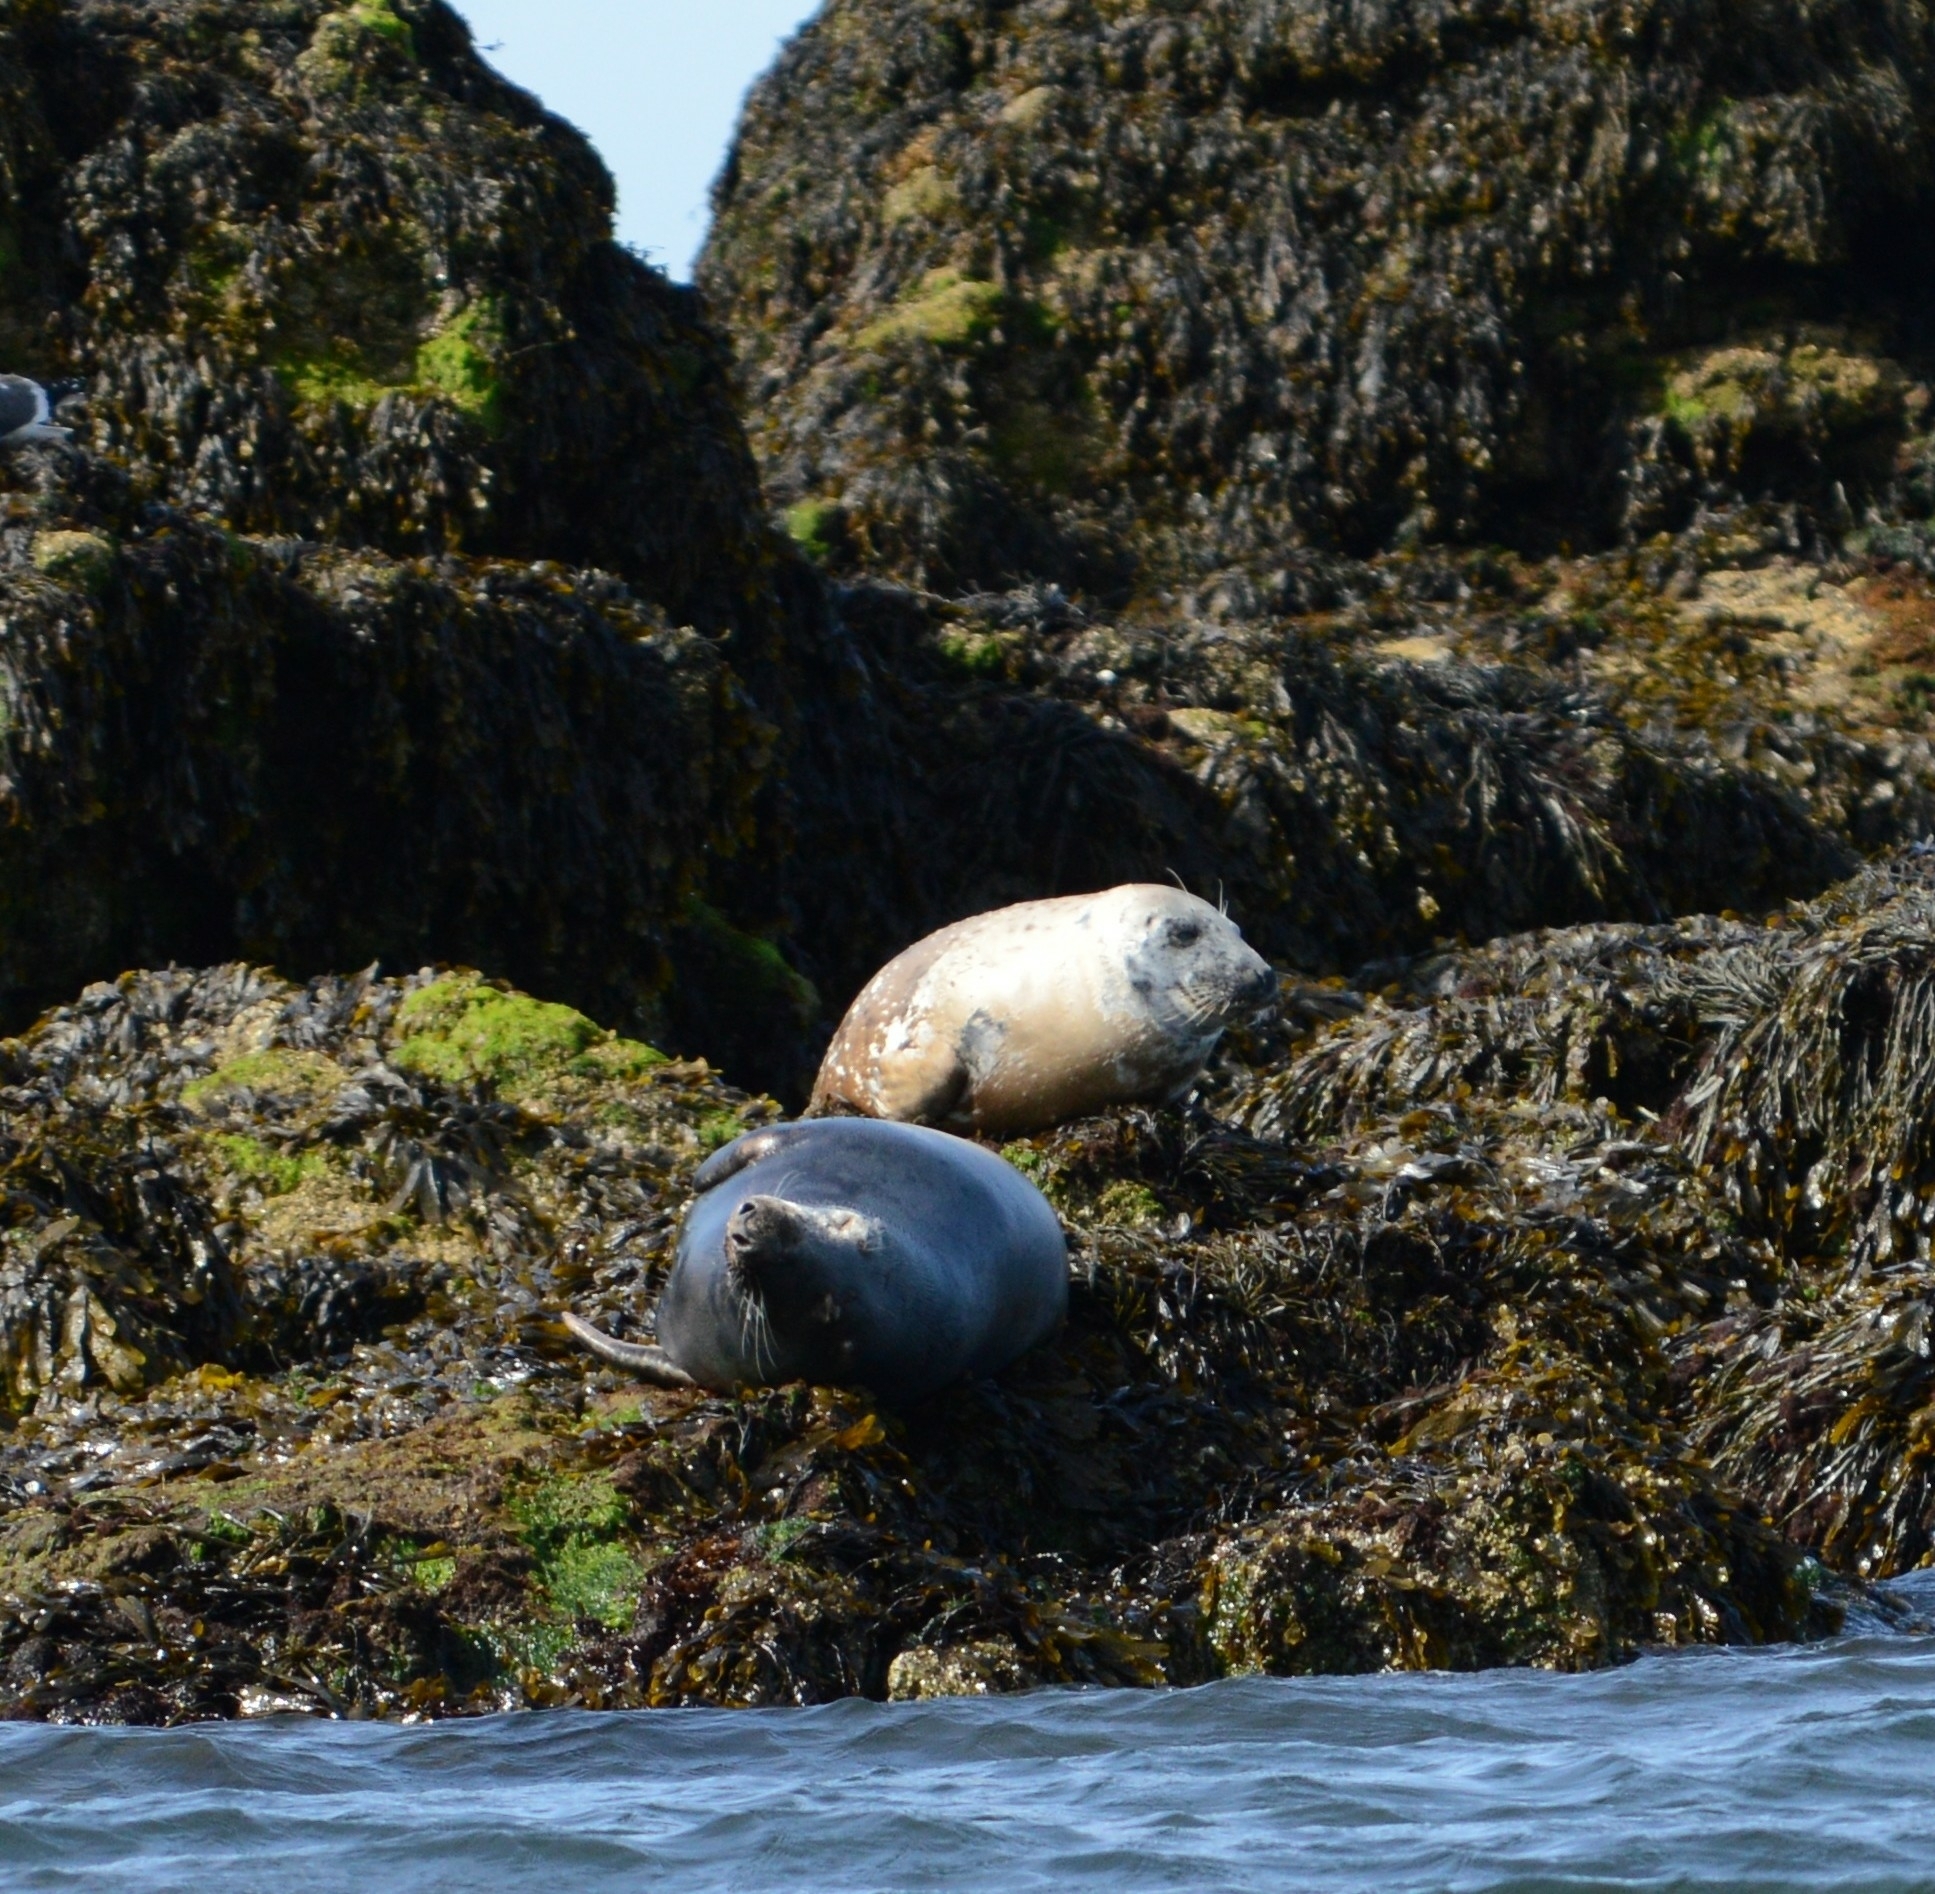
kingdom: Animalia
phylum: Chordata
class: Mammalia
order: Carnivora
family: Phocidae
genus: Halichoerus
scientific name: Halichoerus grypus
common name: Grey seal
